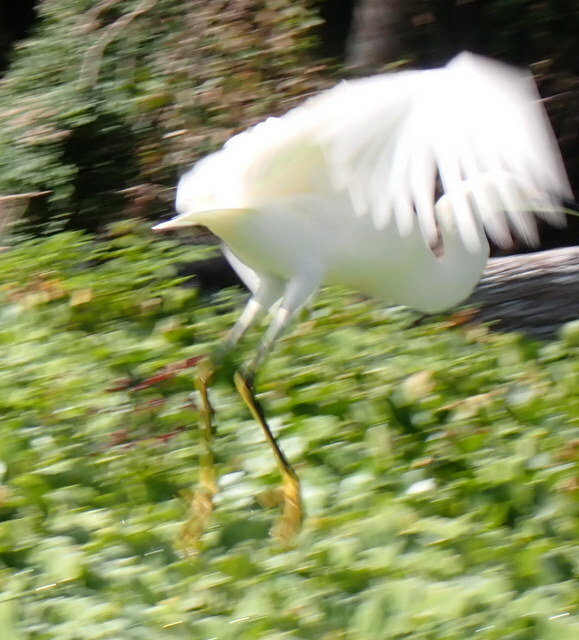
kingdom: Animalia
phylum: Chordata
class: Aves
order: Pelecaniformes
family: Ardeidae
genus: Egretta
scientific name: Egretta thula
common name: Snowy egret
